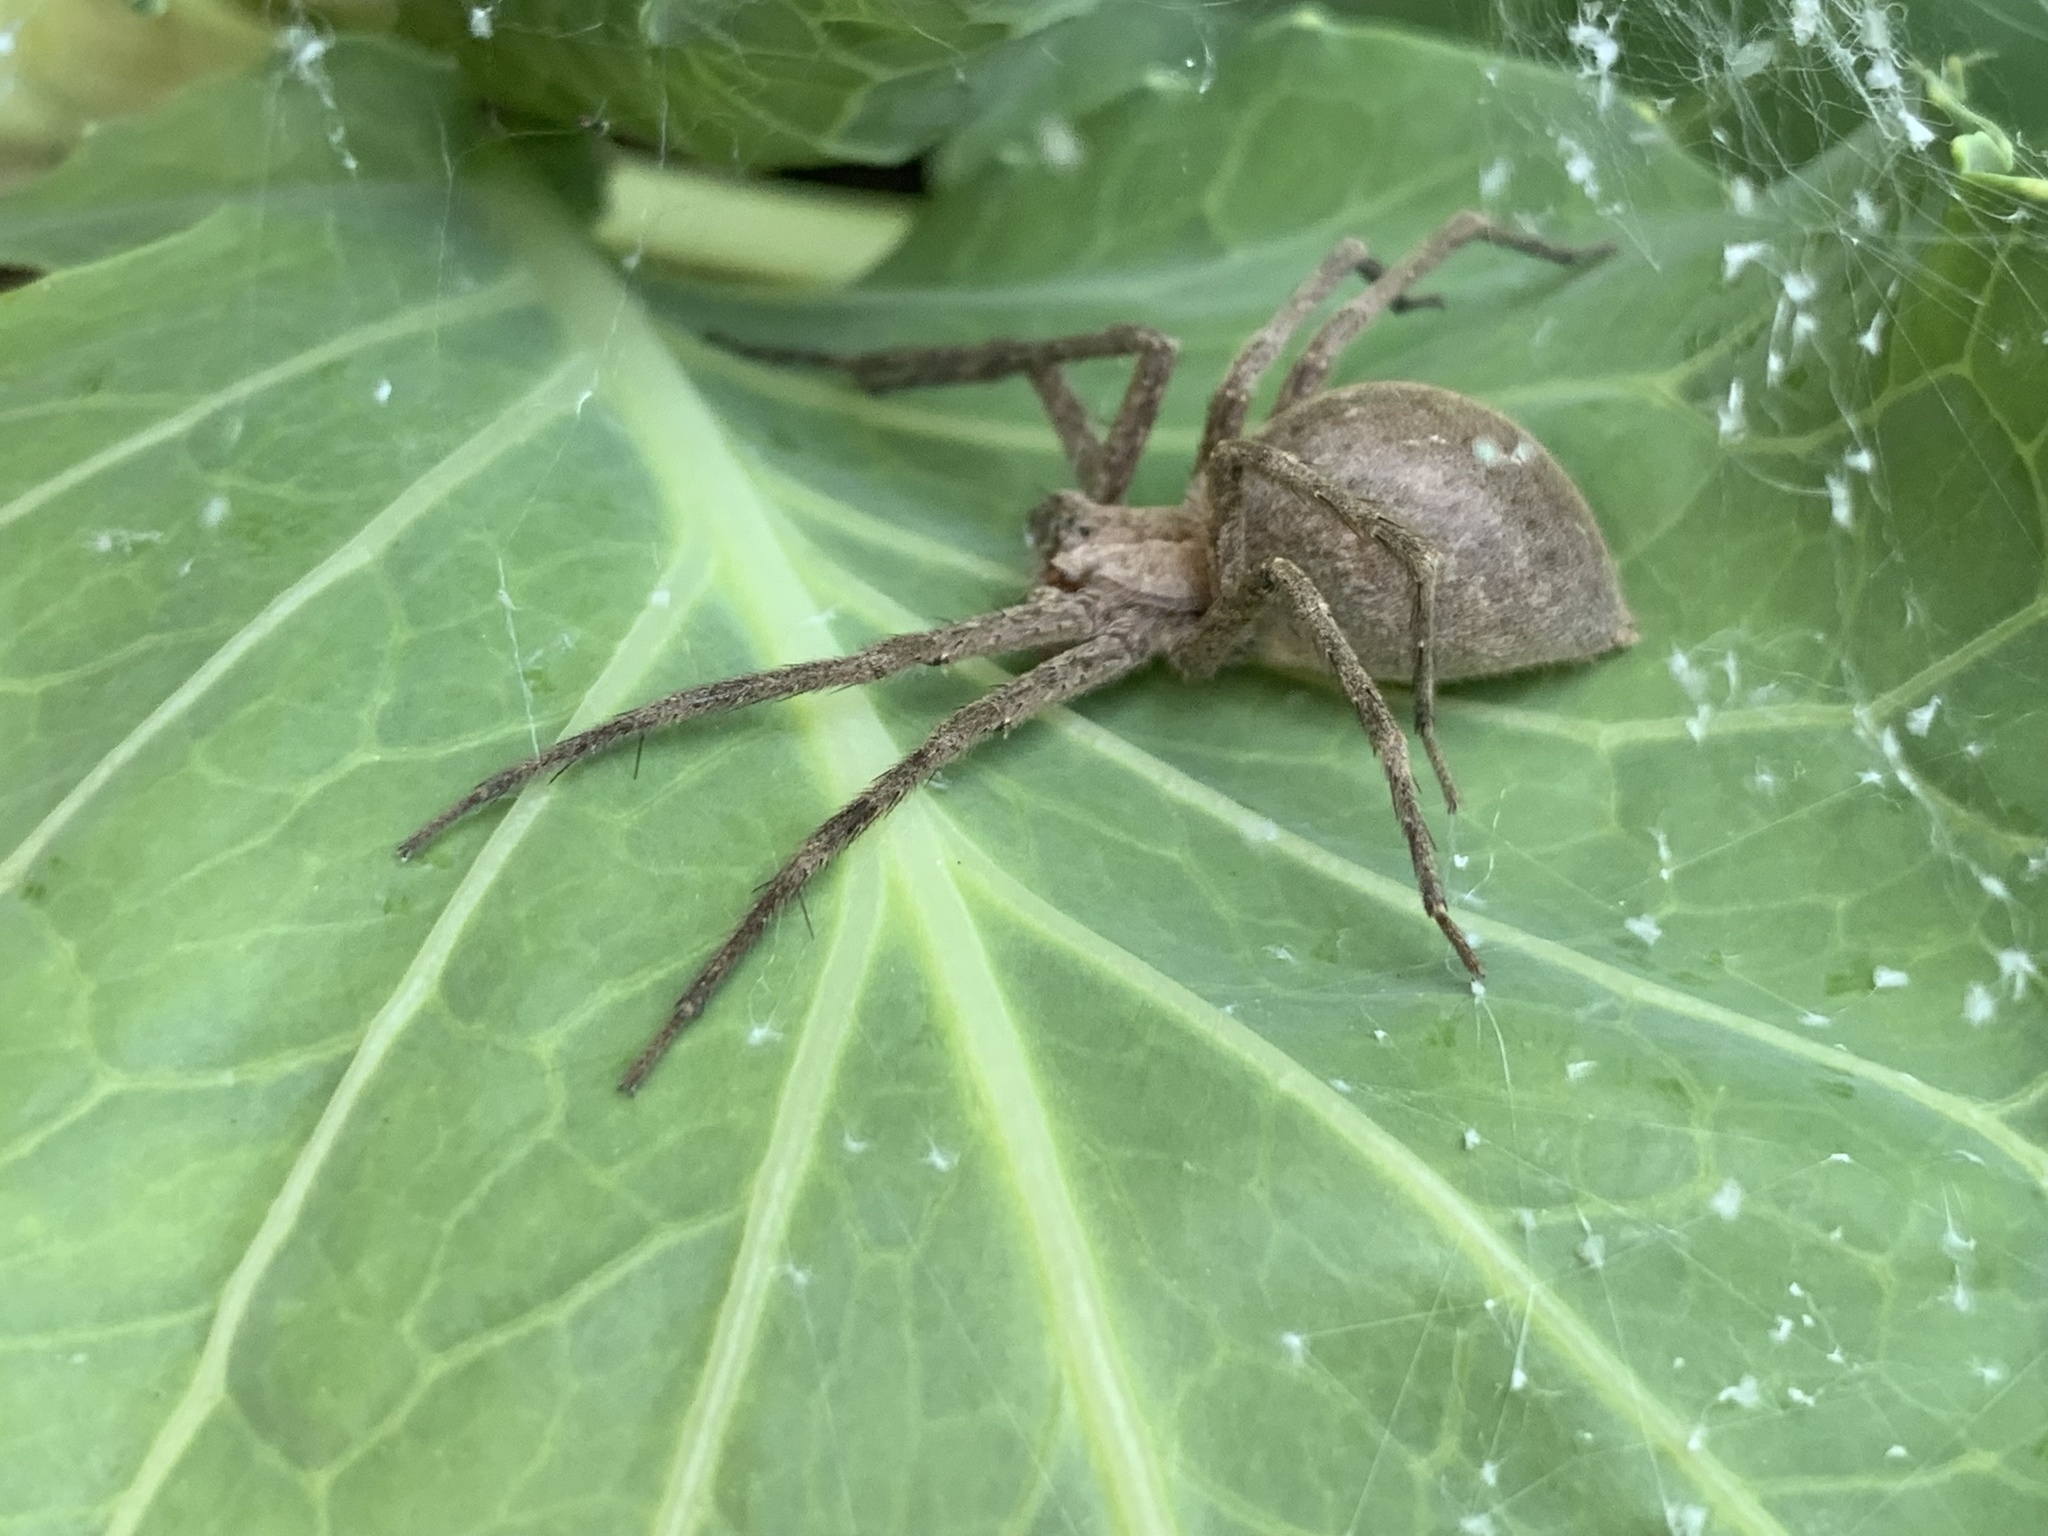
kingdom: Animalia
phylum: Arthropoda
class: Arachnida
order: Araneae
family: Pisauridae
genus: Pisaurina
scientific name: Pisaurina mira
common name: American nursery web spider
